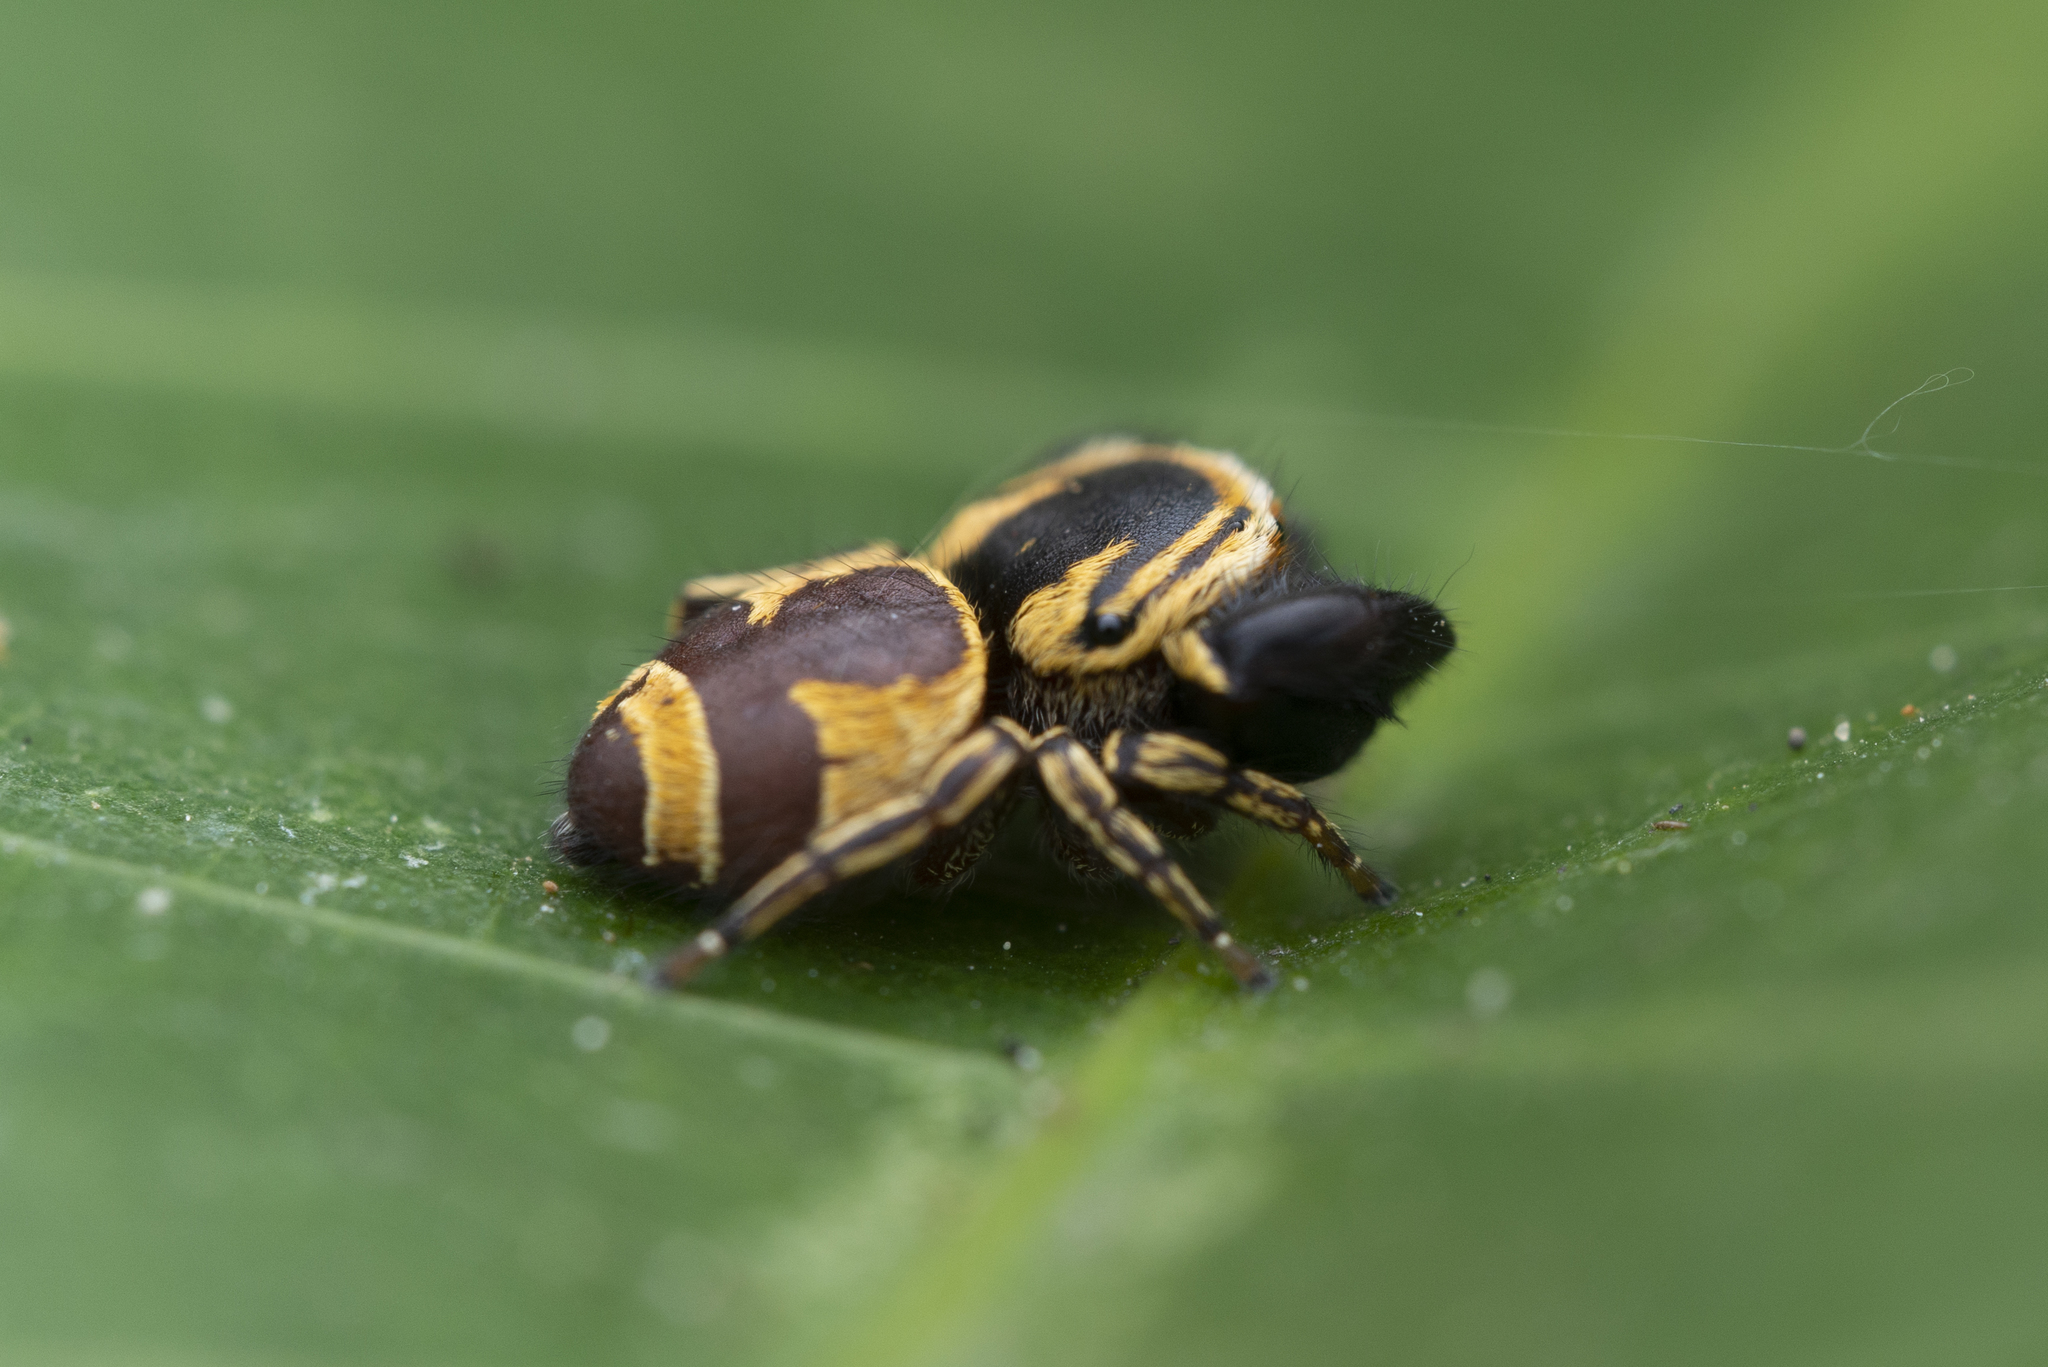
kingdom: Animalia
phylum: Arthropoda
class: Arachnida
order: Araneae
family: Salticidae
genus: Rhene
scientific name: Rhene flavicomans
